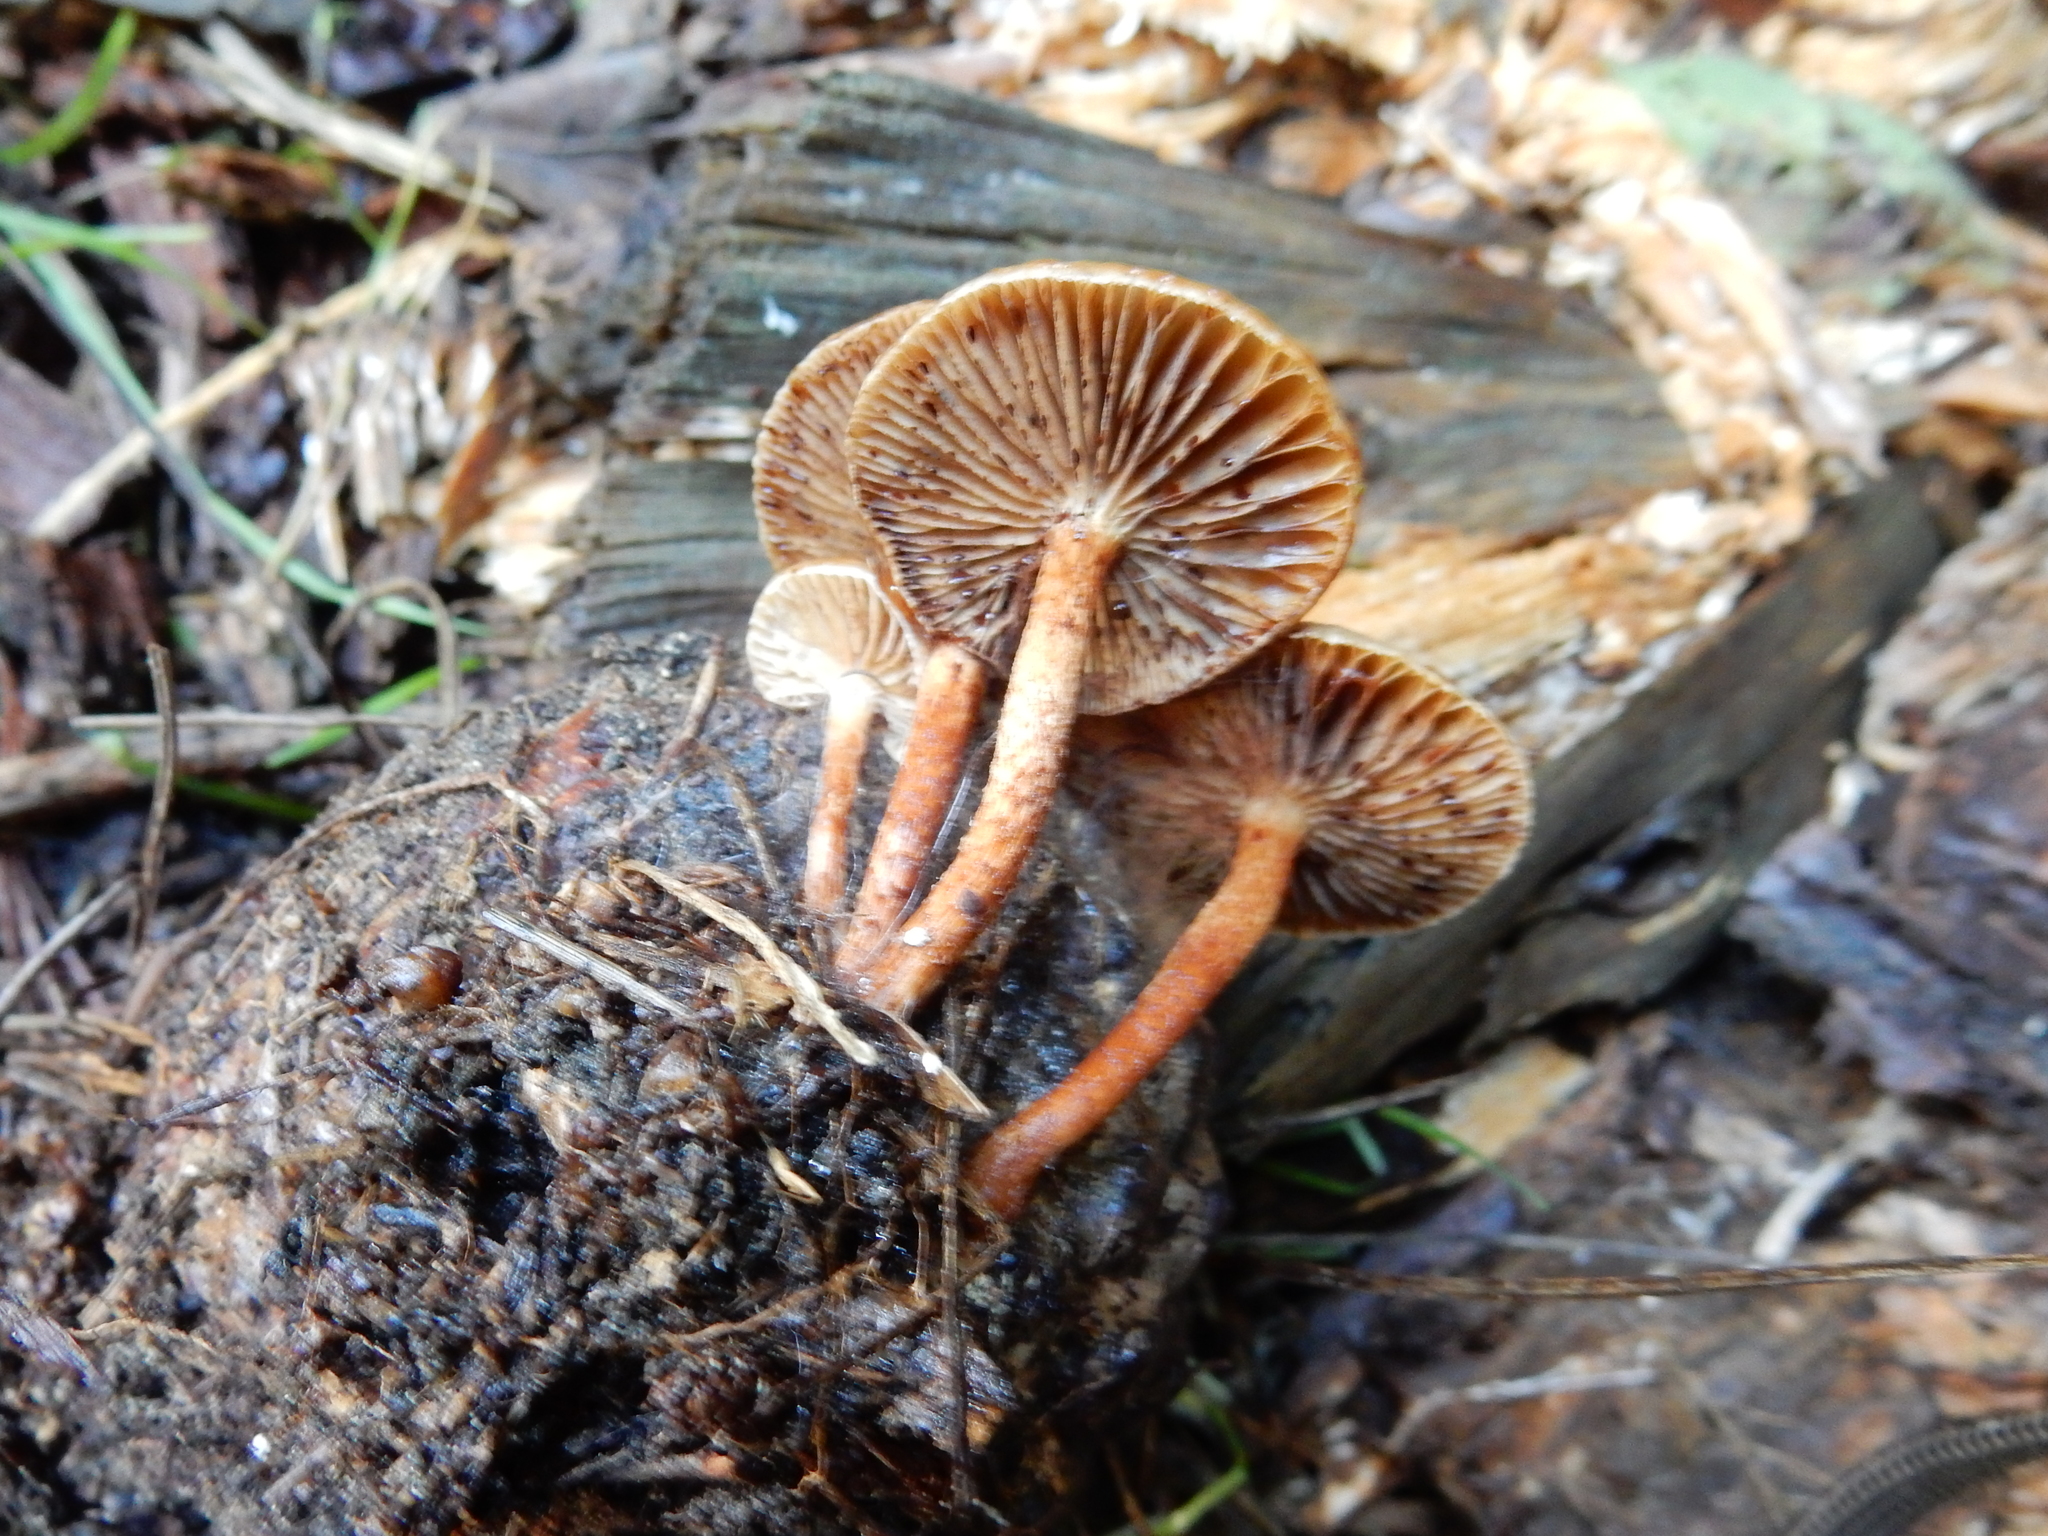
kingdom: Fungi
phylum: Basidiomycota
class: Agaricomycetes
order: Agaricales
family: Strophariaceae
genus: Pholiota
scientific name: Pholiota multicingulata
